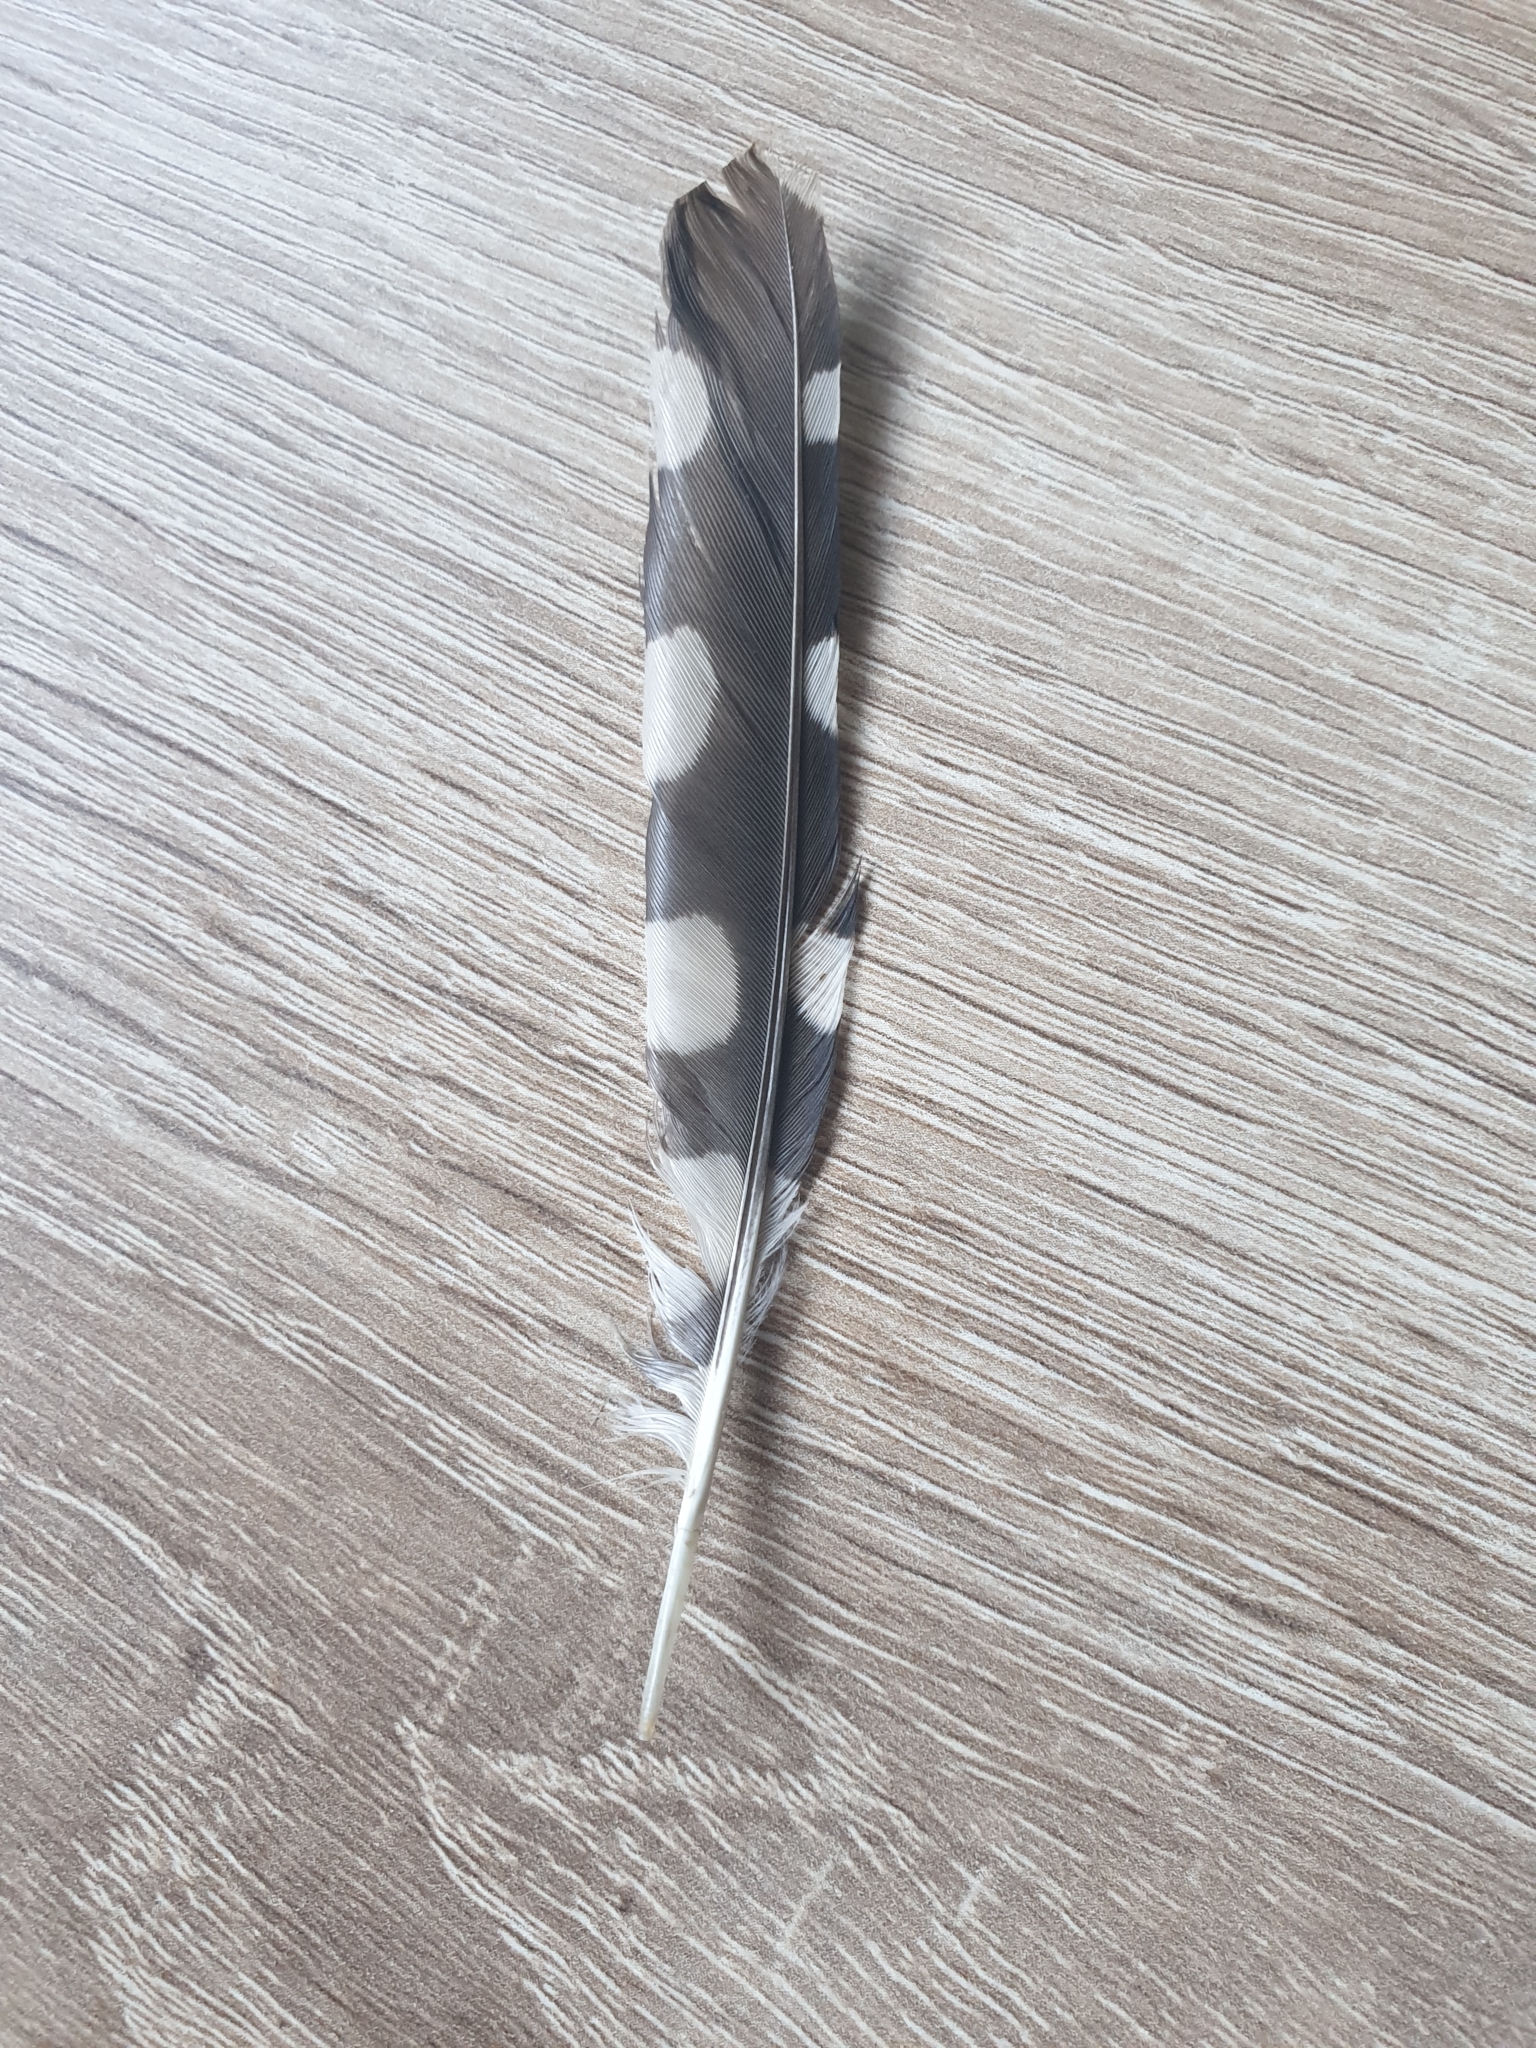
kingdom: Animalia
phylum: Chordata
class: Aves
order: Piciformes
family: Picidae
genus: Dendrocopos
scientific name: Dendrocopos major
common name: Great spotted woodpecker
